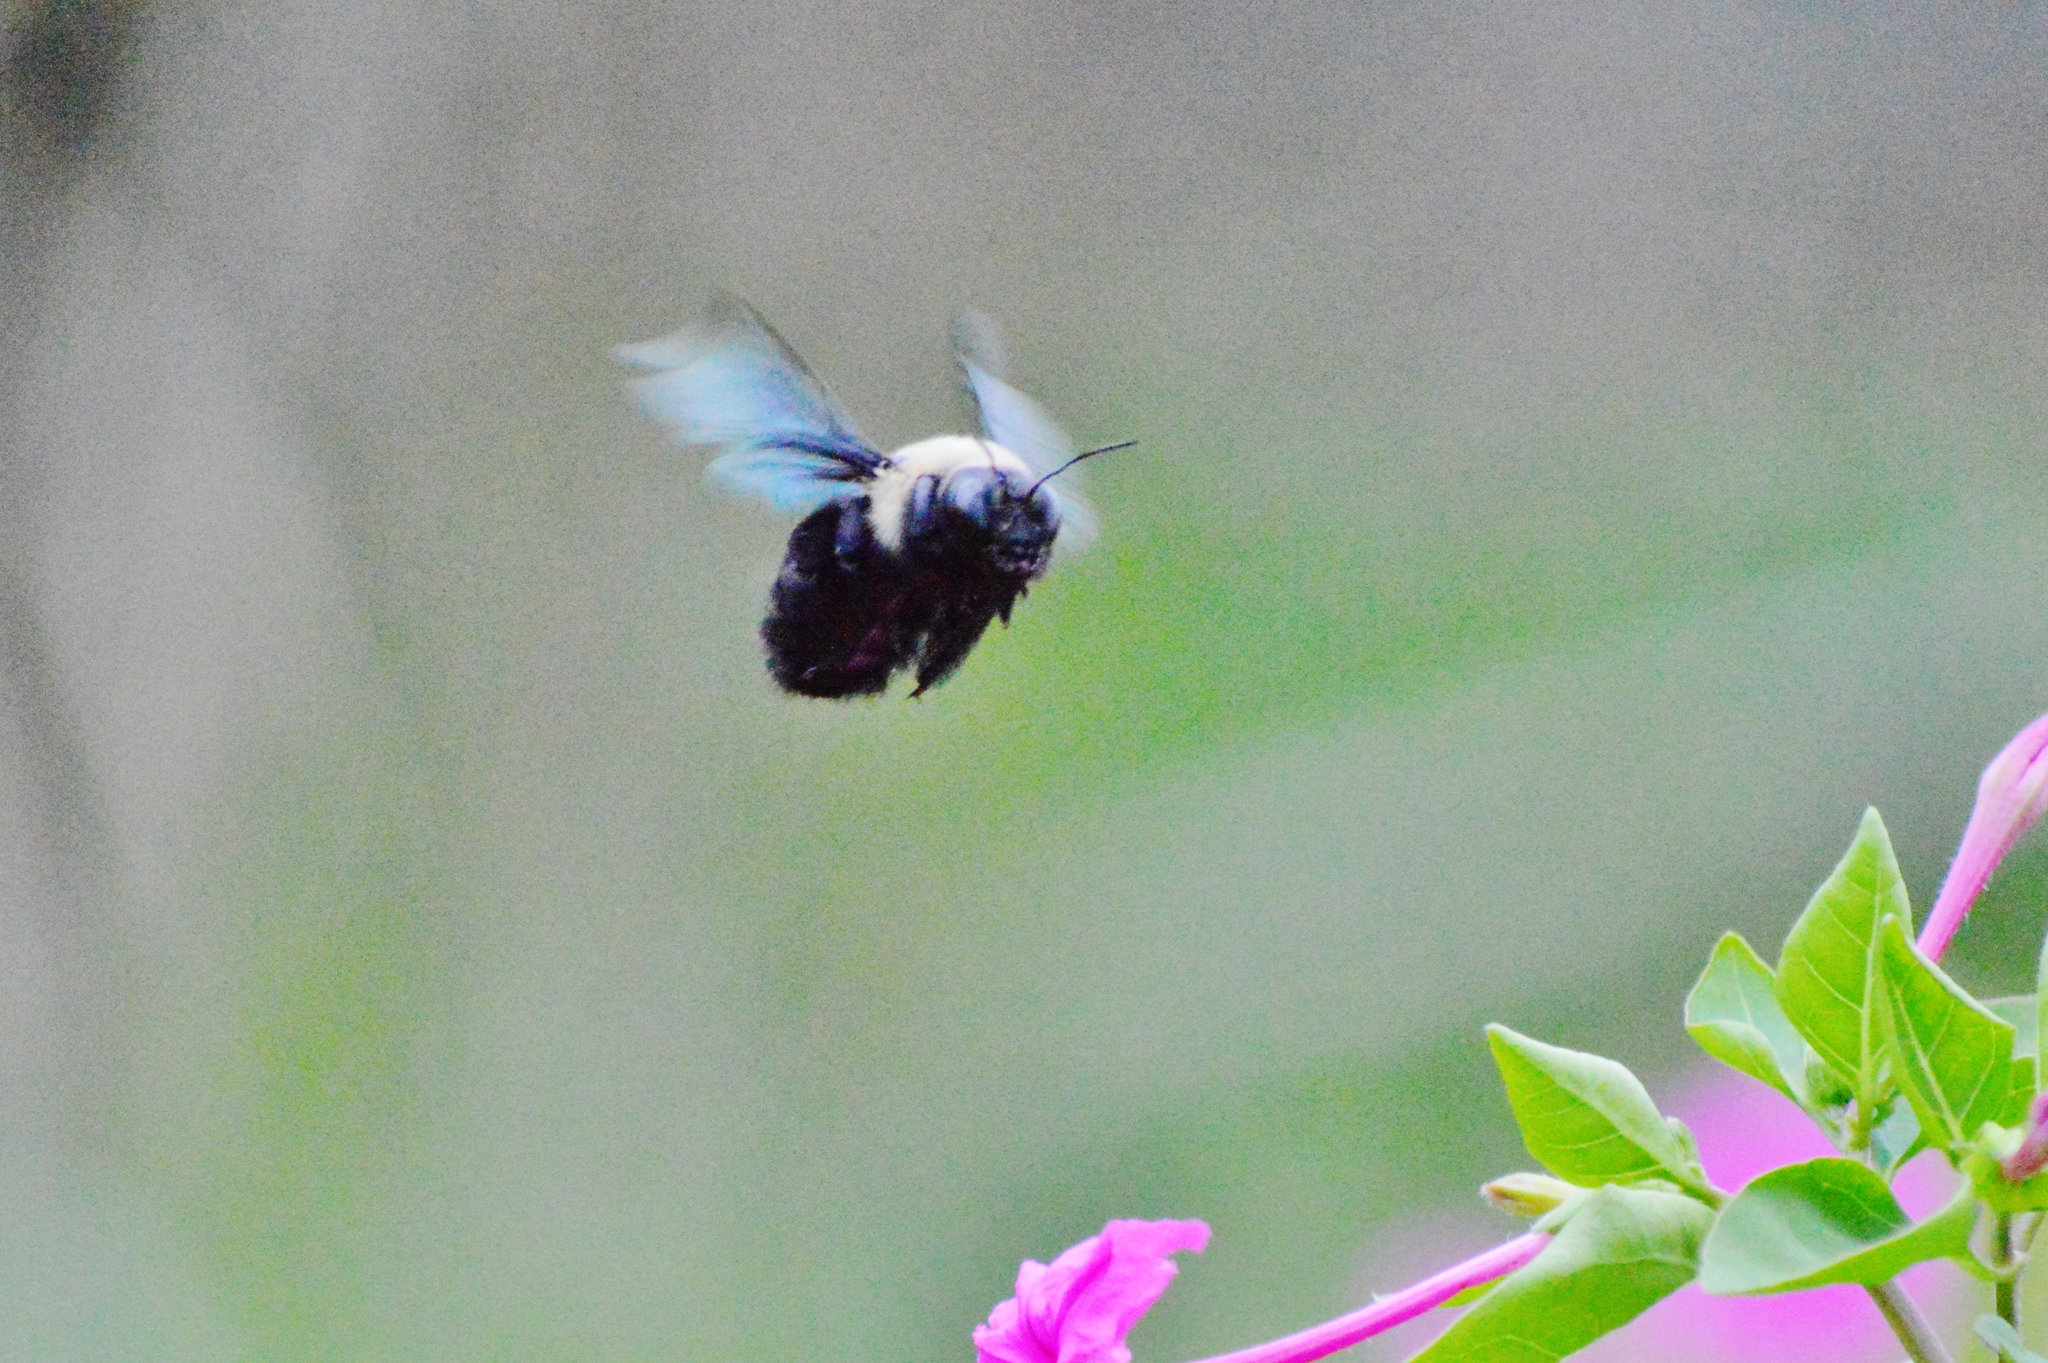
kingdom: Animalia
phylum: Arthropoda
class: Insecta
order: Hymenoptera
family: Apidae
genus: Xylocopa
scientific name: Xylocopa grisescens
